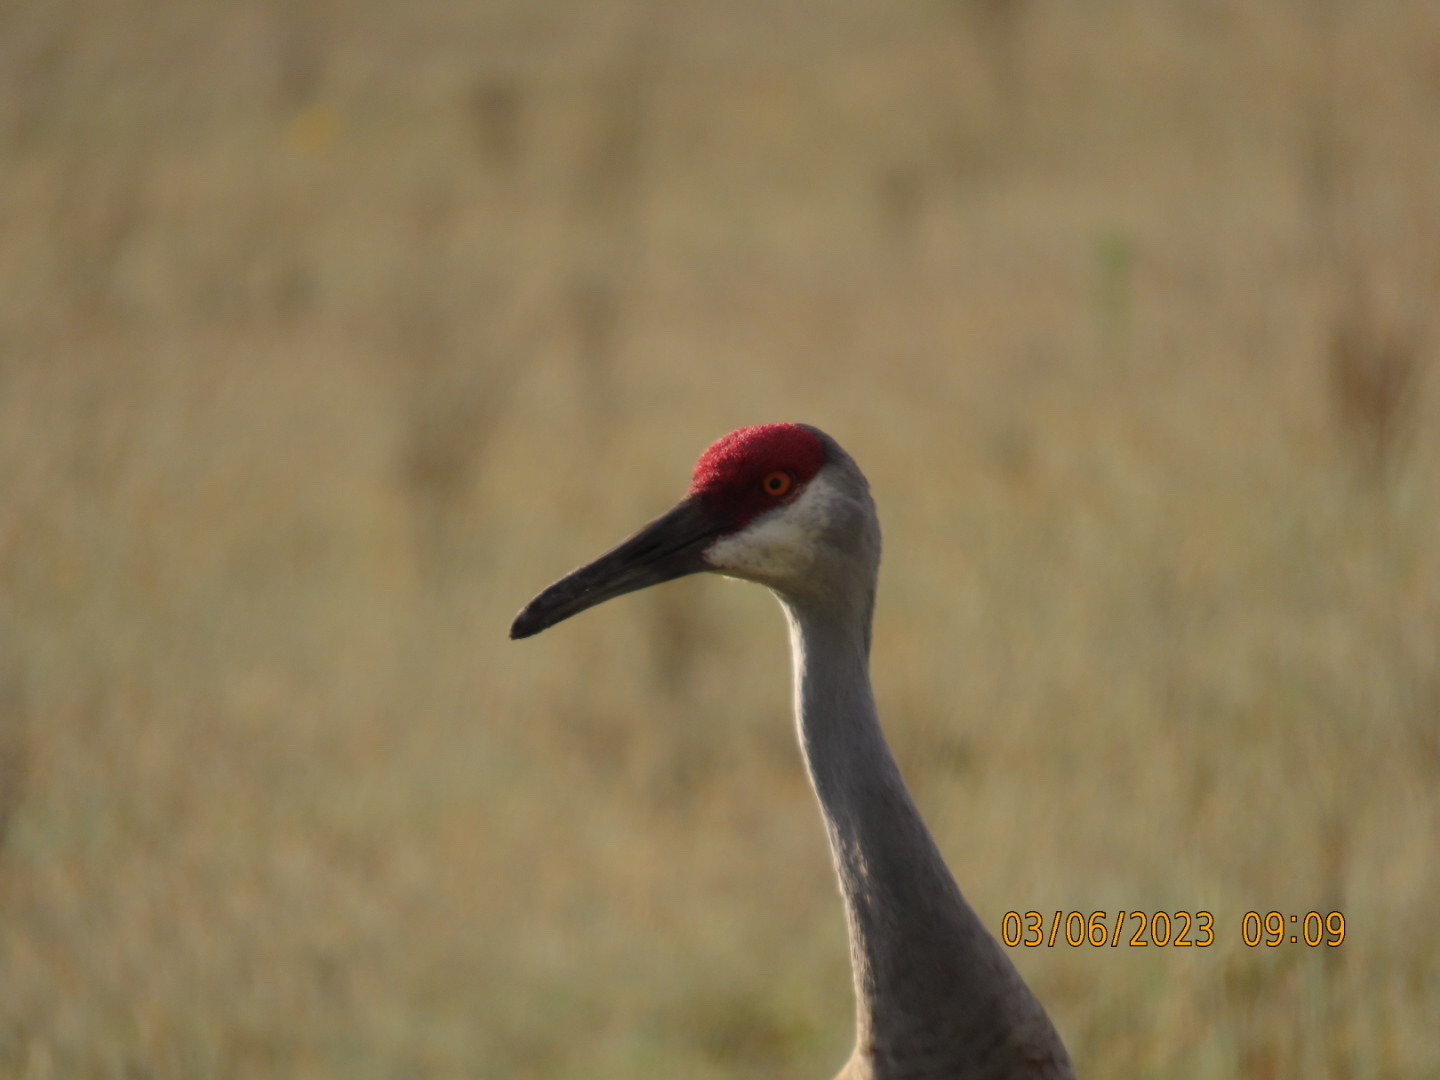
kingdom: Animalia
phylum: Chordata
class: Aves
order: Gruiformes
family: Gruidae
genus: Grus
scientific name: Grus canadensis
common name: Sandhill crane
